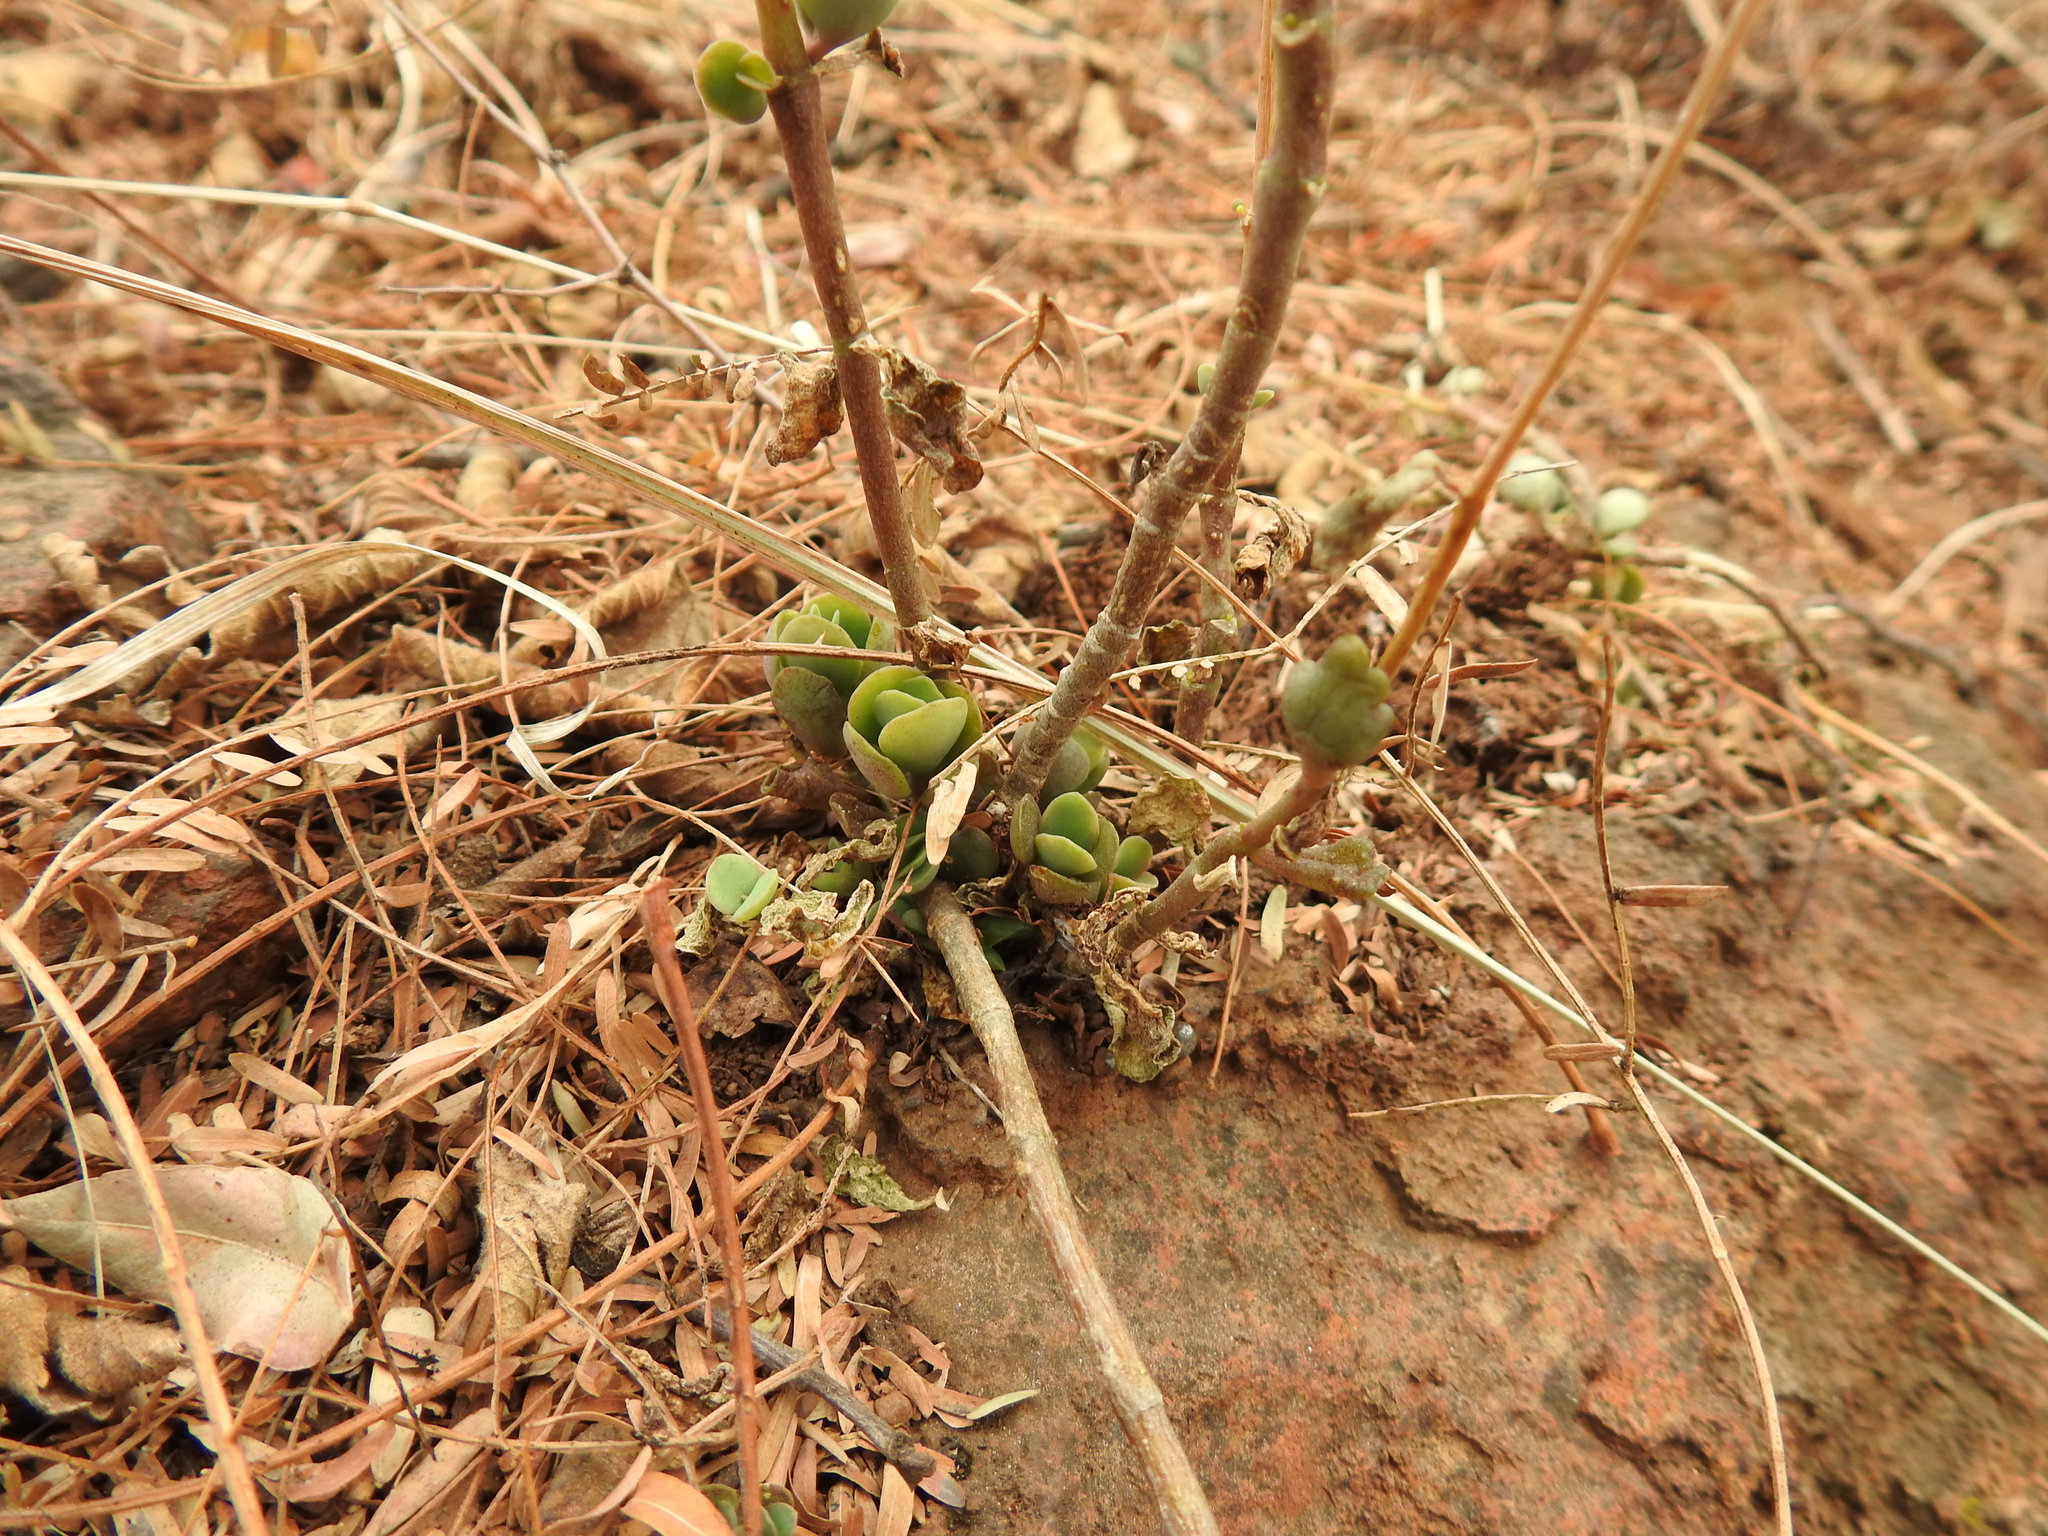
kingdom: Plantae
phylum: Tracheophyta
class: Magnoliopsida
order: Saxifragales
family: Crassulaceae
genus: Kalanchoe
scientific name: Kalanchoe rotundifolia
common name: Common kalanchoe
